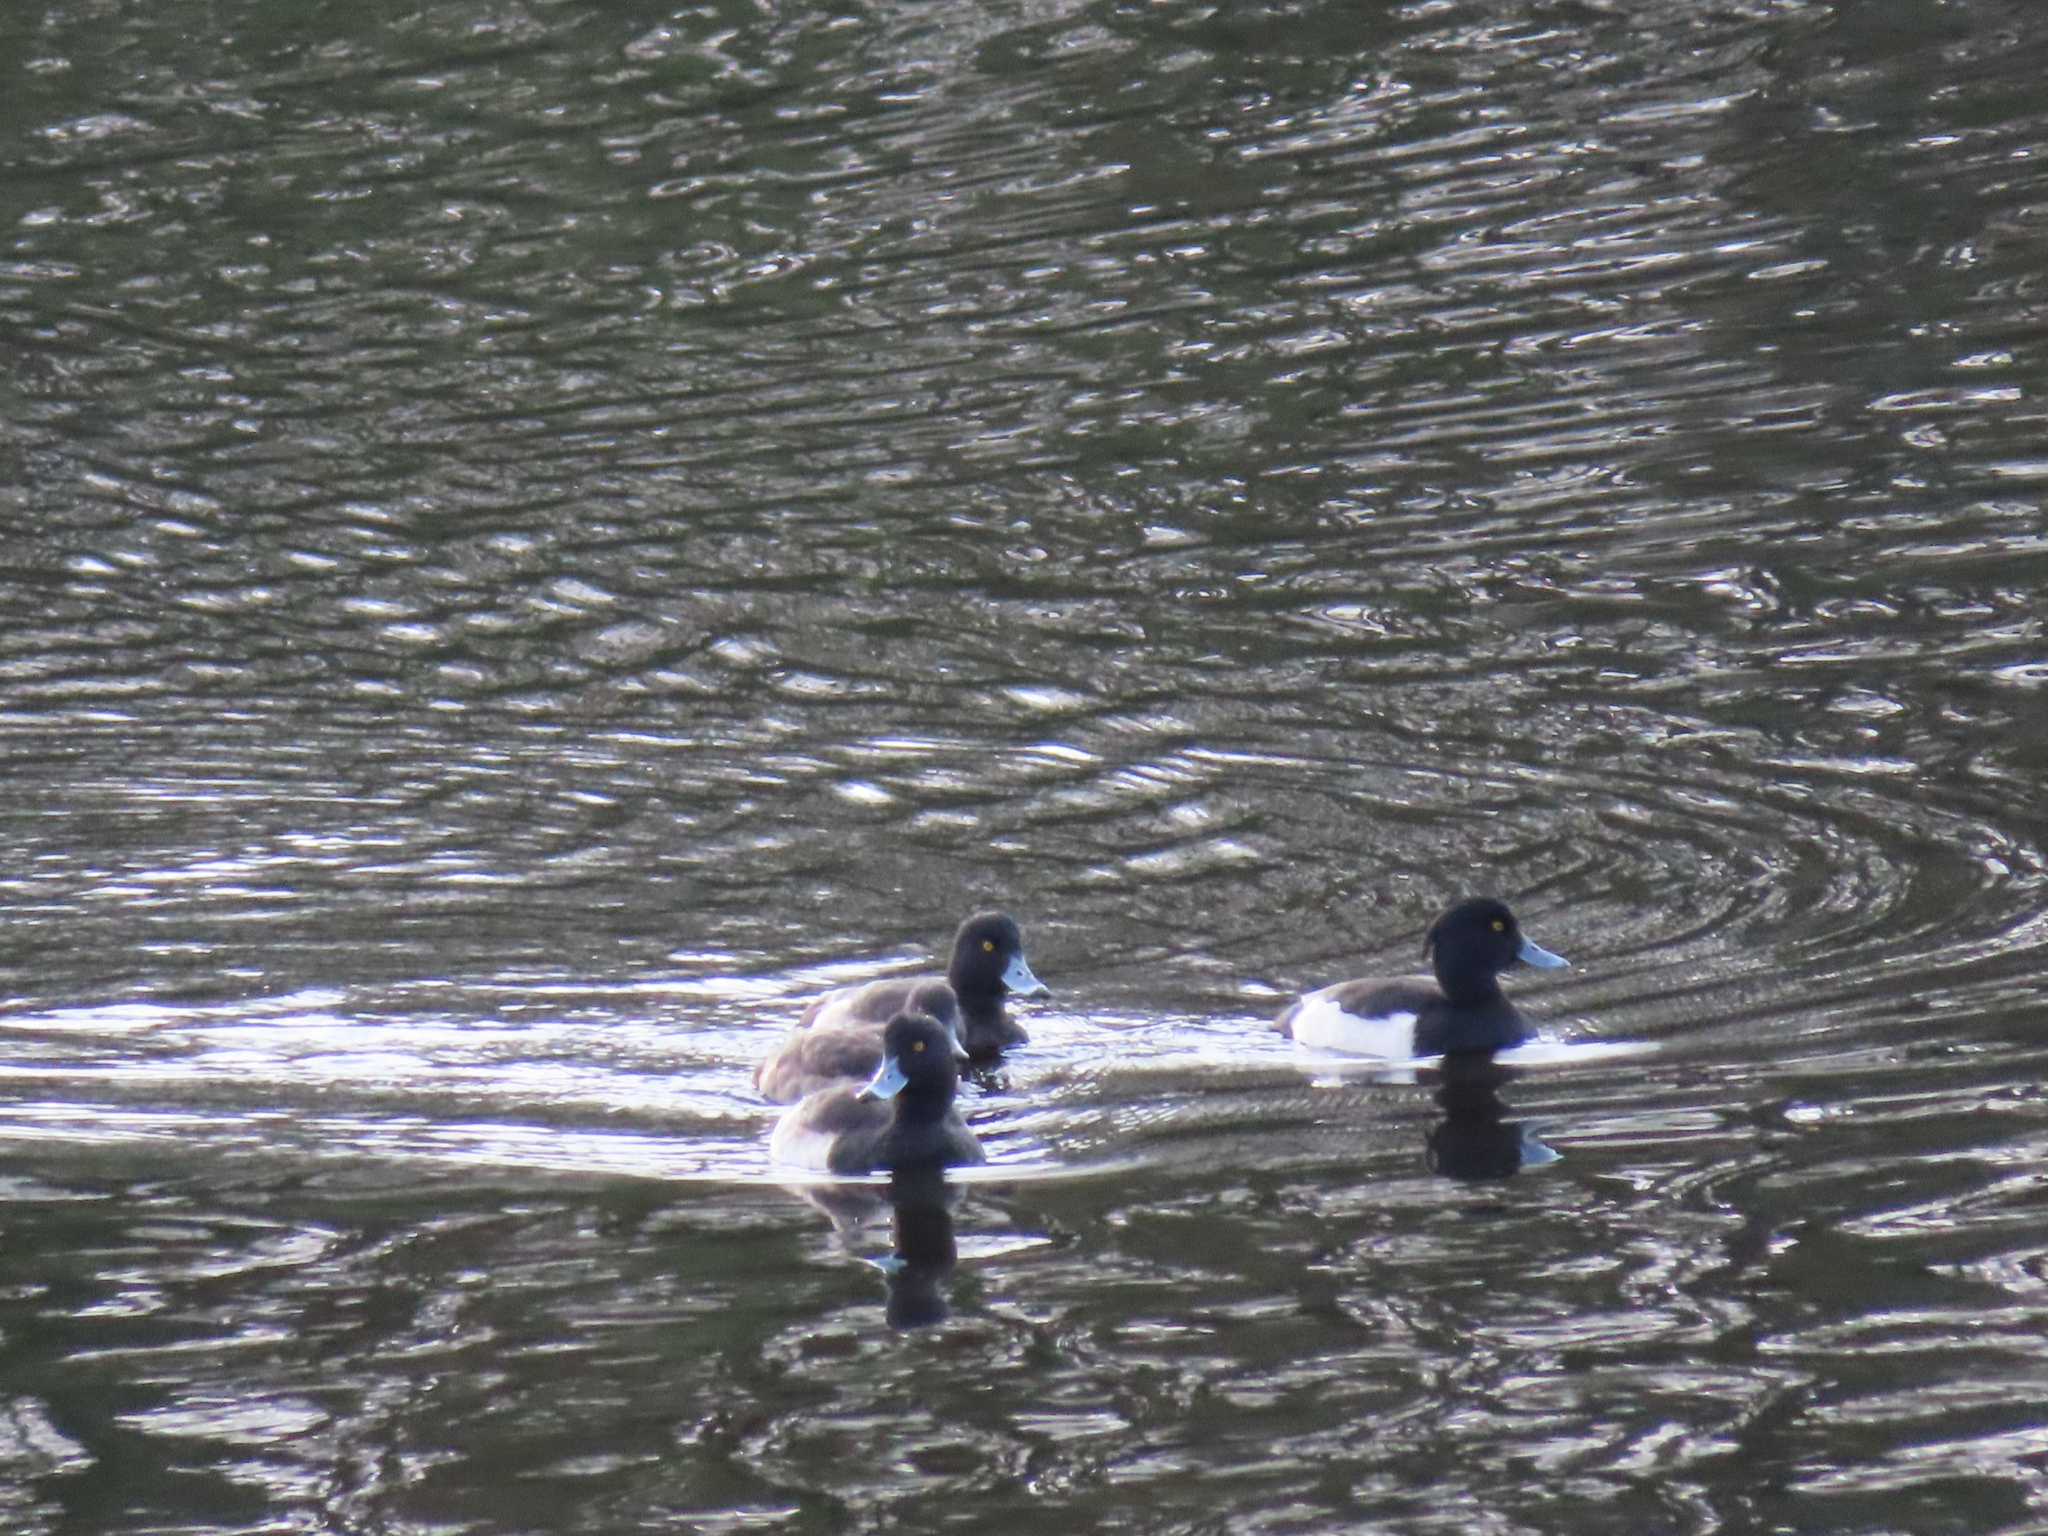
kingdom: Animalia
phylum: Chordata
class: Aves
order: Anseriformes
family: Anatidae
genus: Aythya
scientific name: Aythya fuligula
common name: Tufted duck
